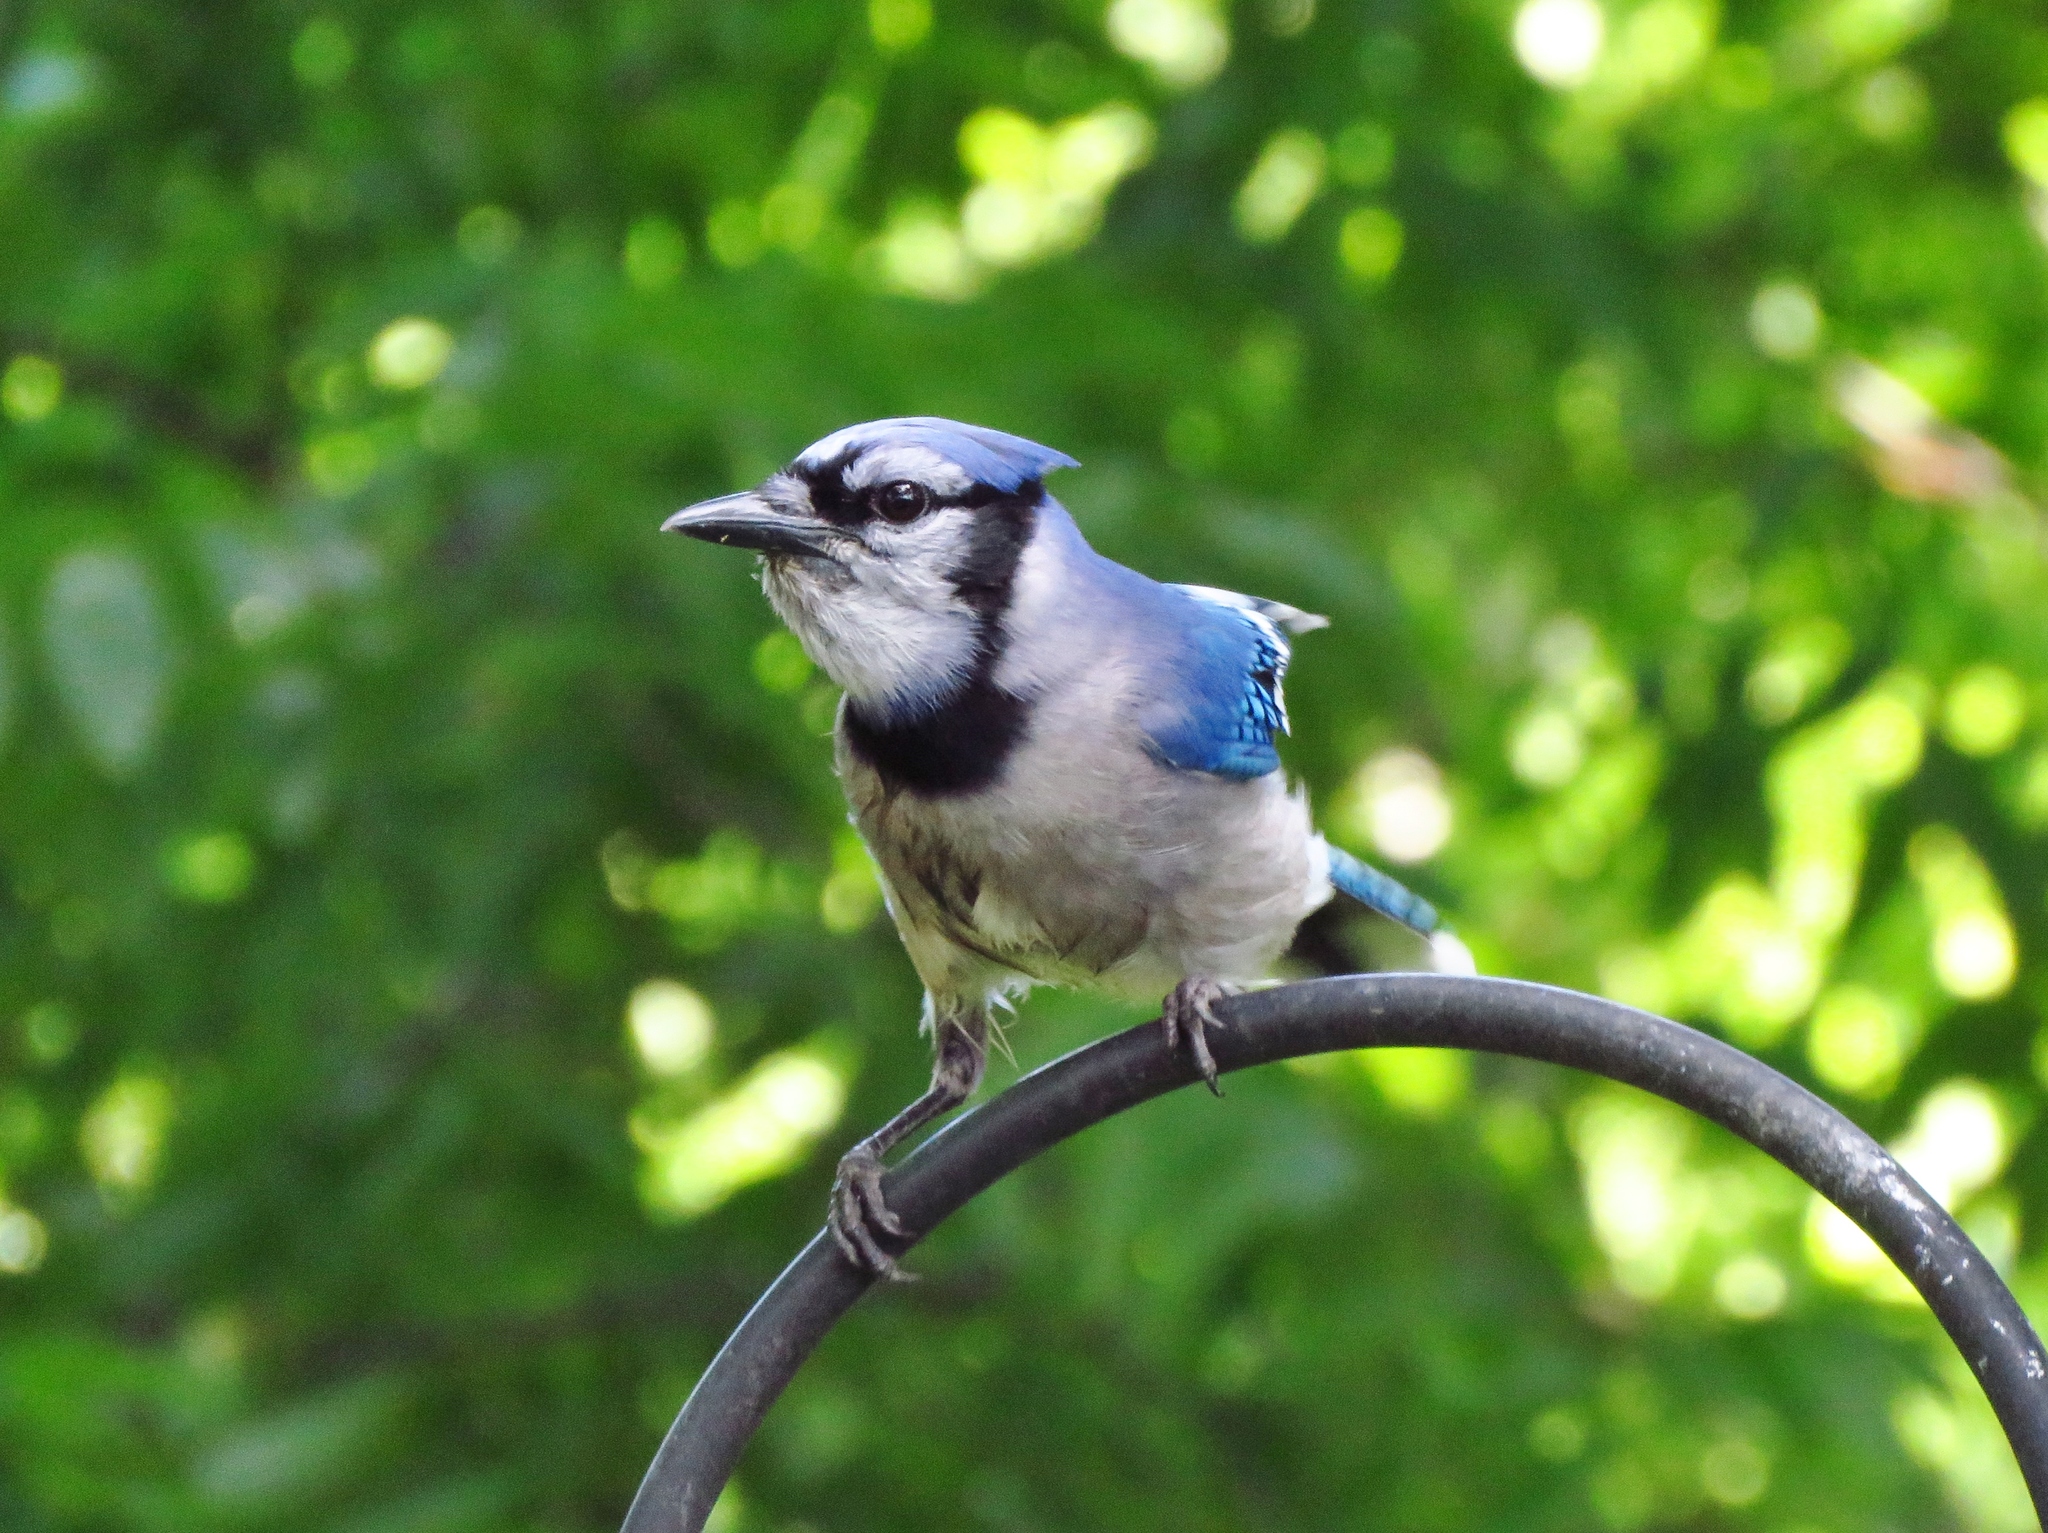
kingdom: Animalia
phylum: Chordata
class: Aves
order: Passeriformes
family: Corvidae
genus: Cyanocitta
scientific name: Cyanocitta cristata
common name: Blue jay
